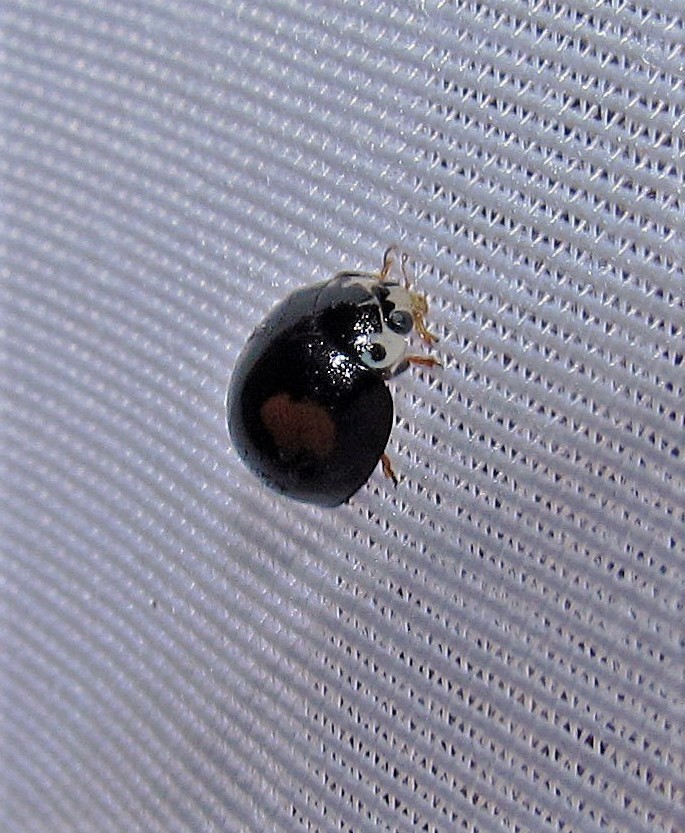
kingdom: Animalia
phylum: Arthropoda
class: Insecta
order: Coleoptera
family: Coccinellidae
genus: Olla
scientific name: Olla v-nigrum
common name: Ashy gray lady beetle
